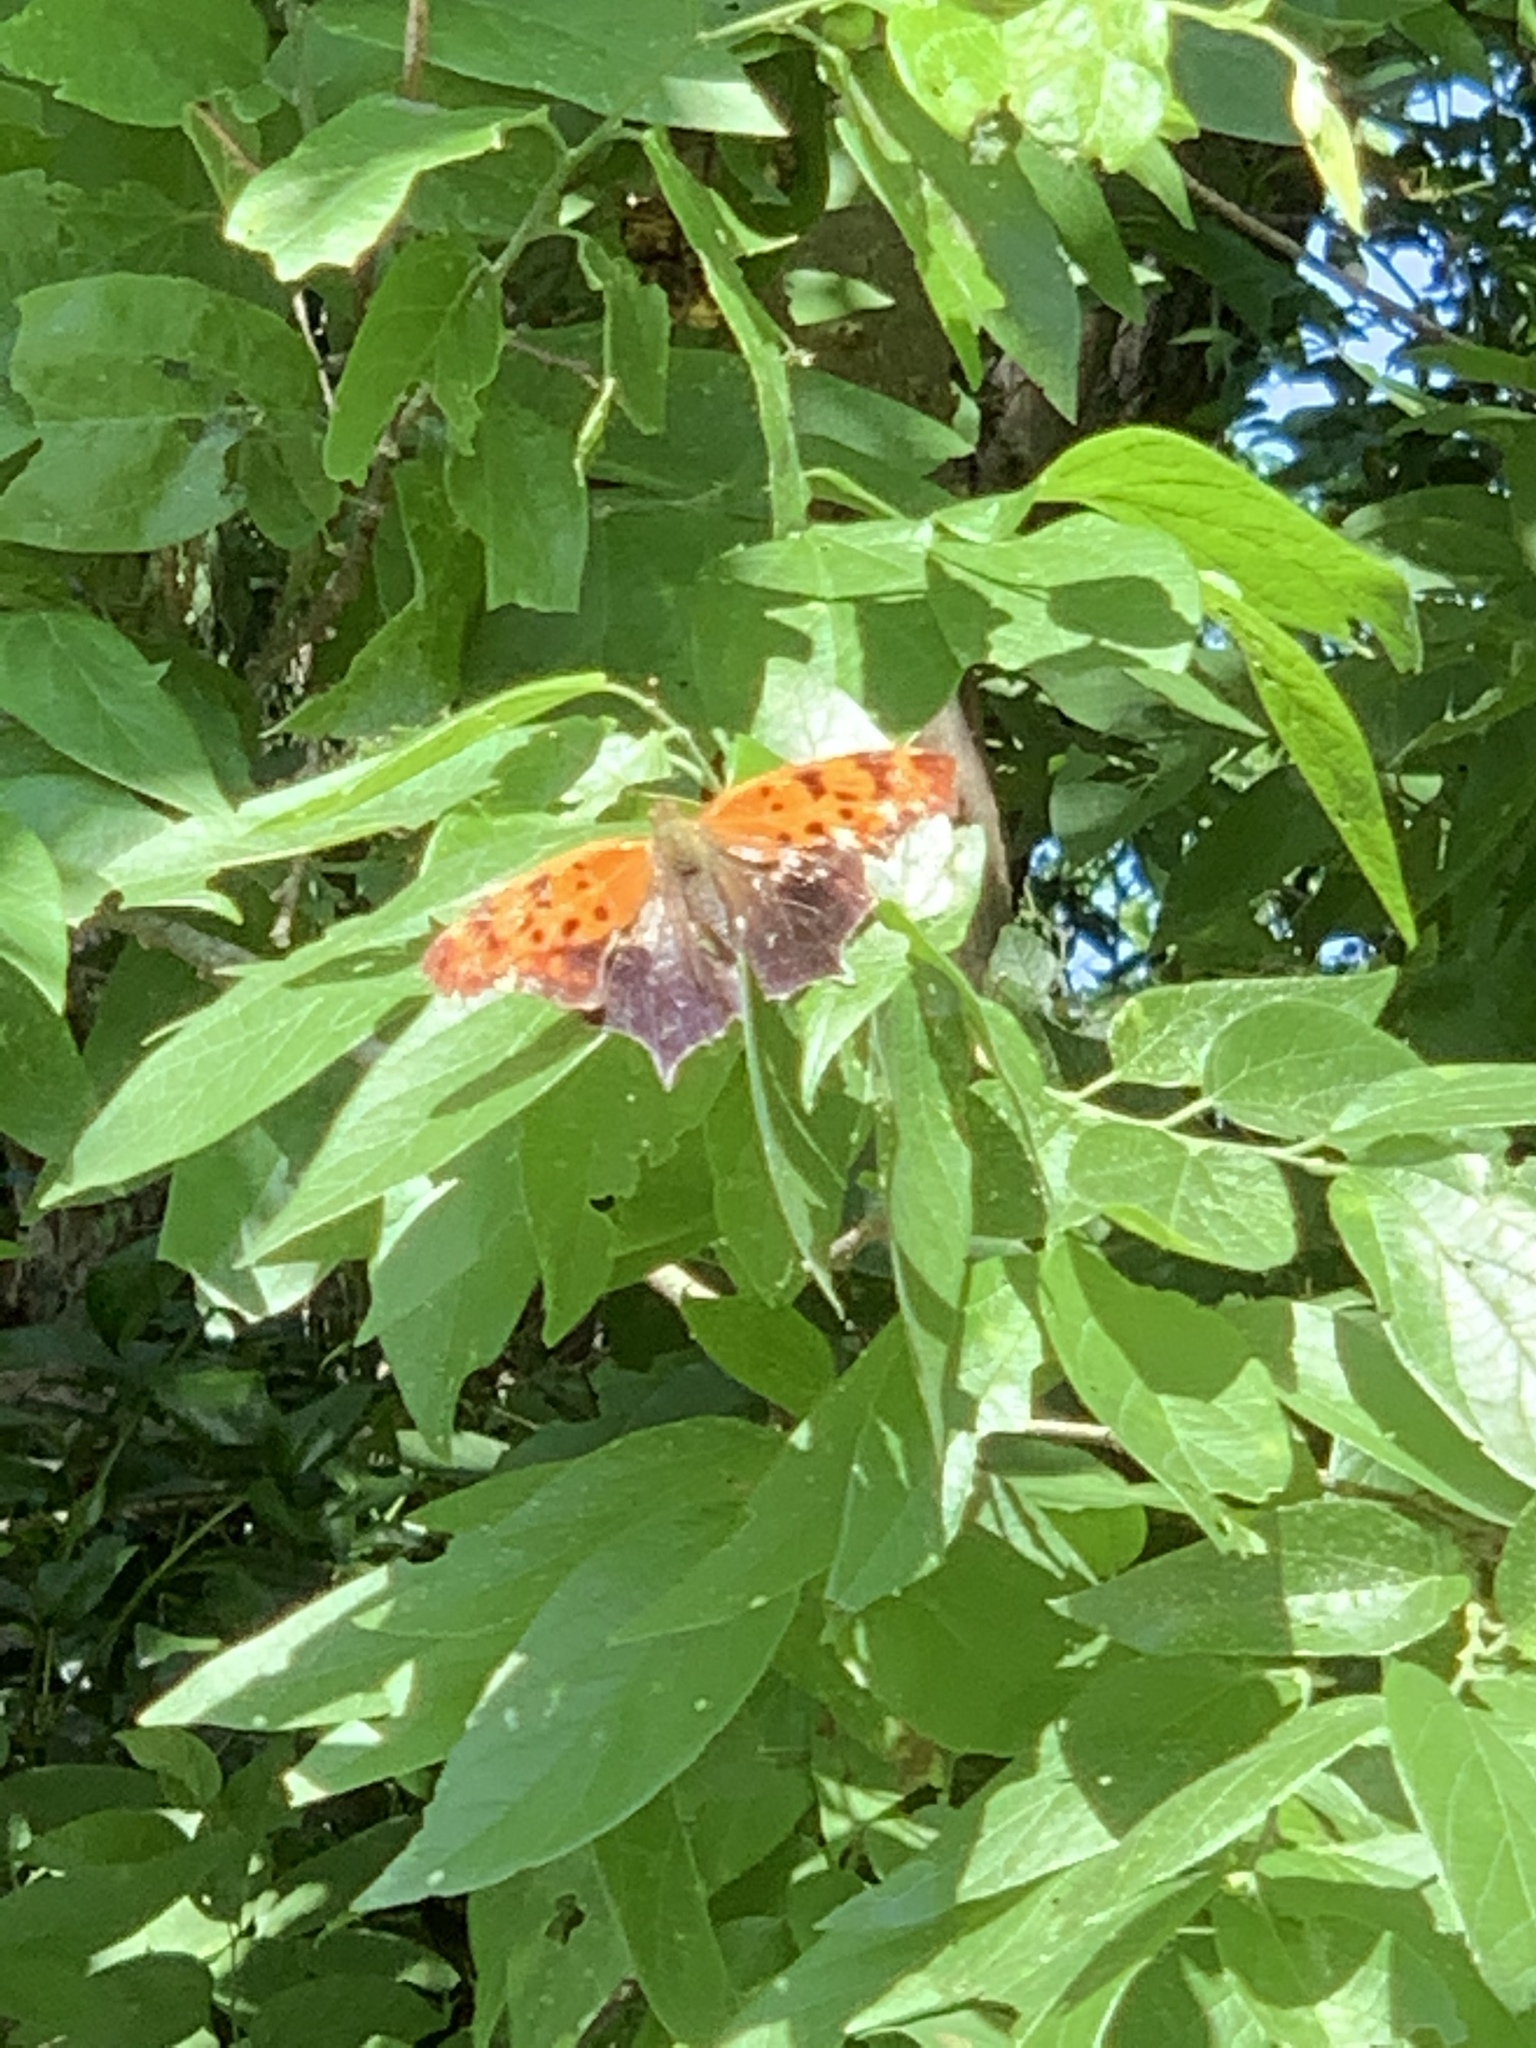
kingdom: Animalia
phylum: Arthropoda
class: Insecta
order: Lepidoptera
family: Nymphalidae
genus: Polygonia
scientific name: Polygonia interrogationis
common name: Question mark
